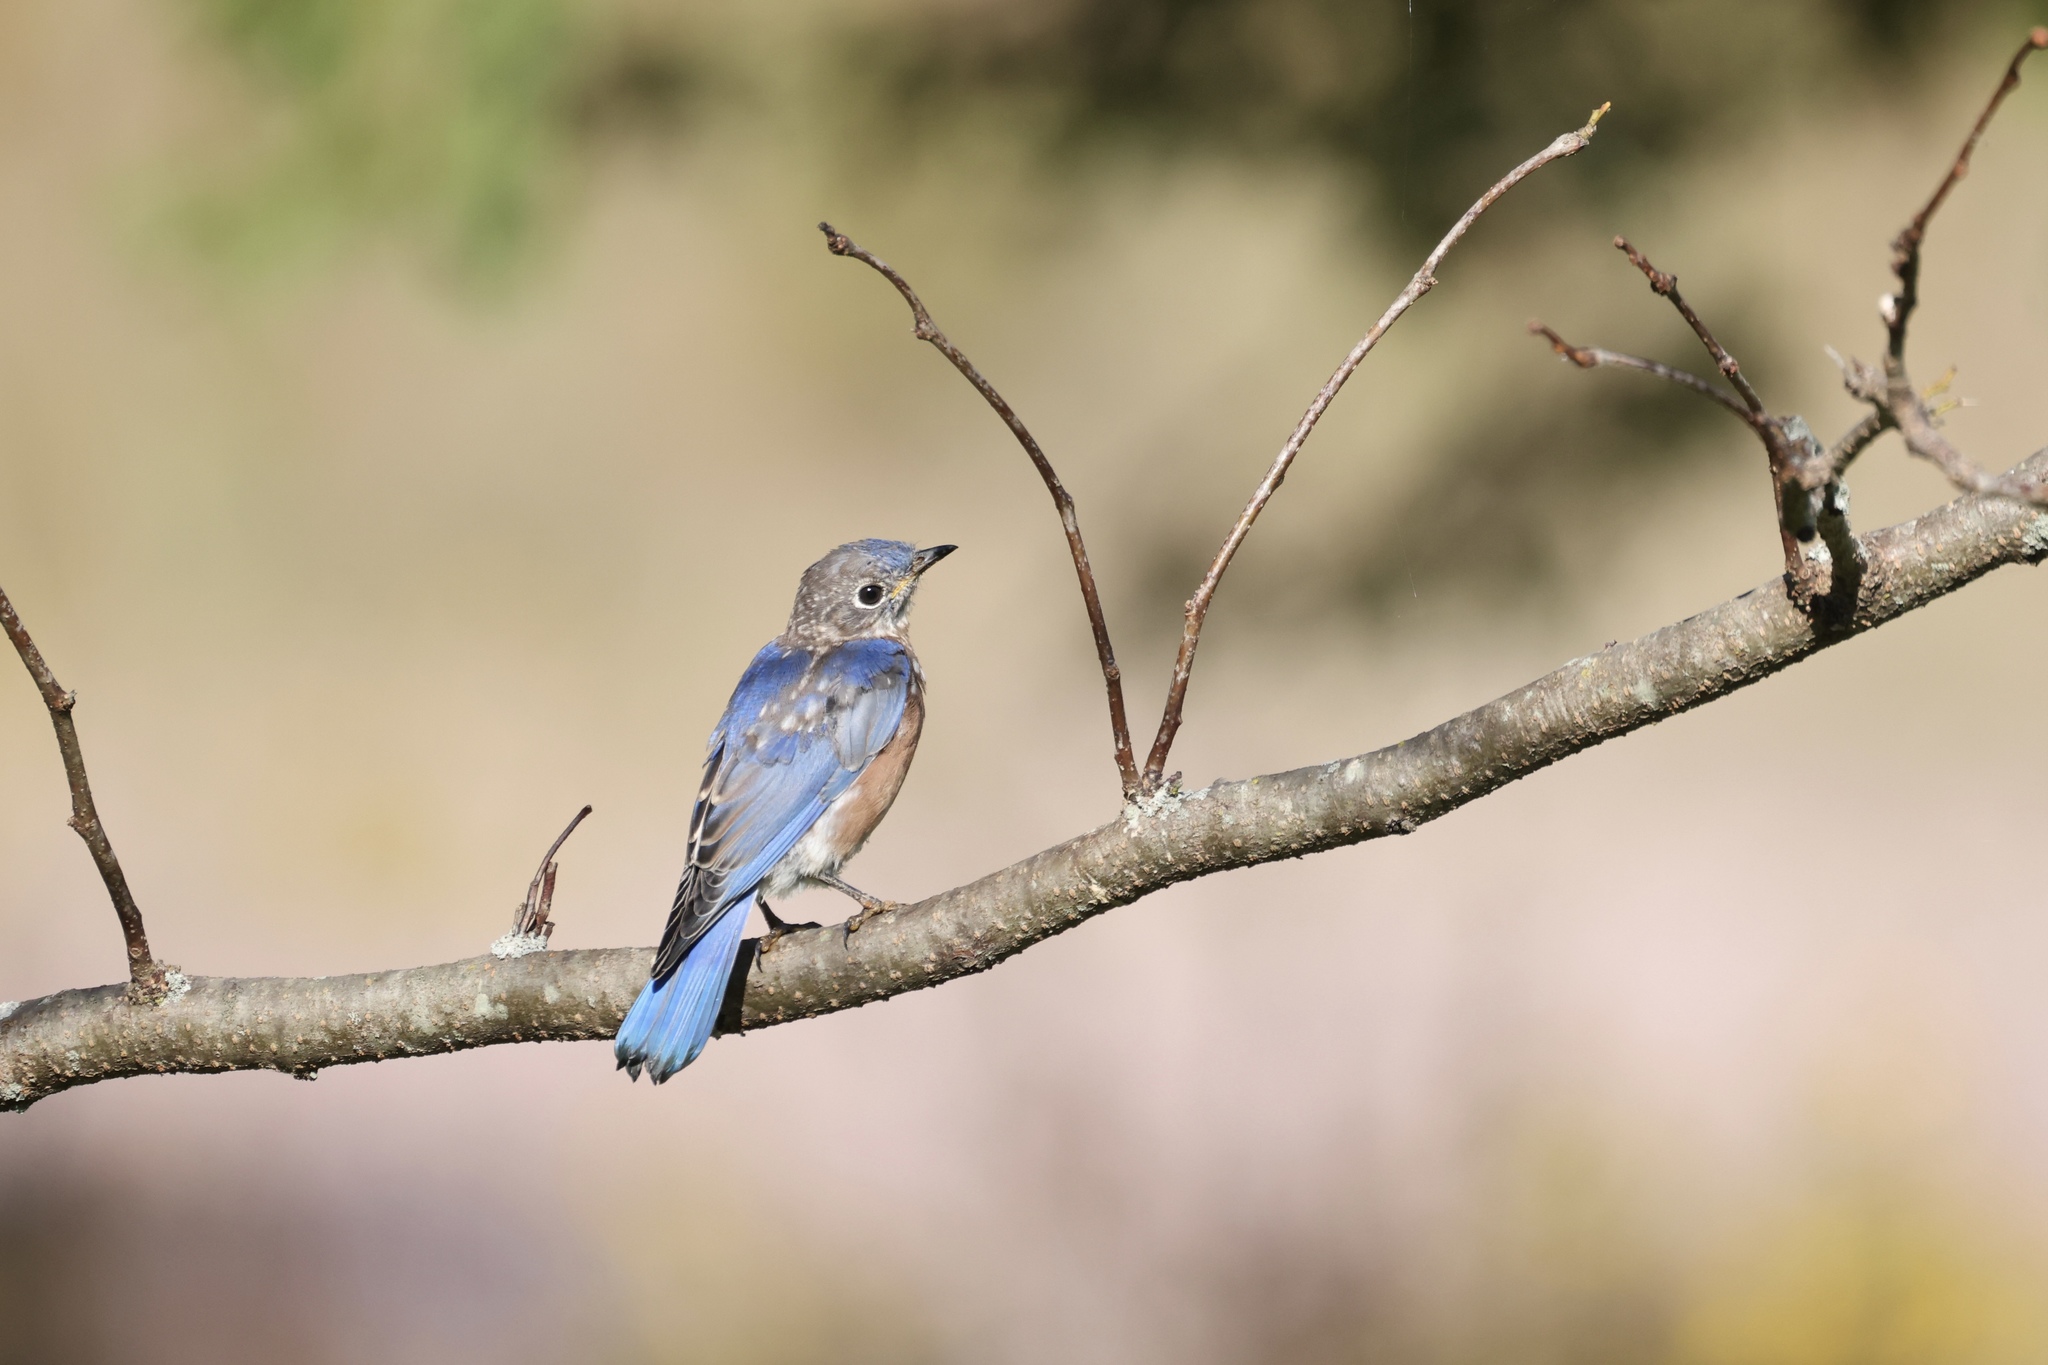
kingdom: Animalia
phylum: Chordata
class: Aves
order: Passeriformes
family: Turdidae
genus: Sialia
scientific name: Sialia sialis
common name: Eastern bluebird
